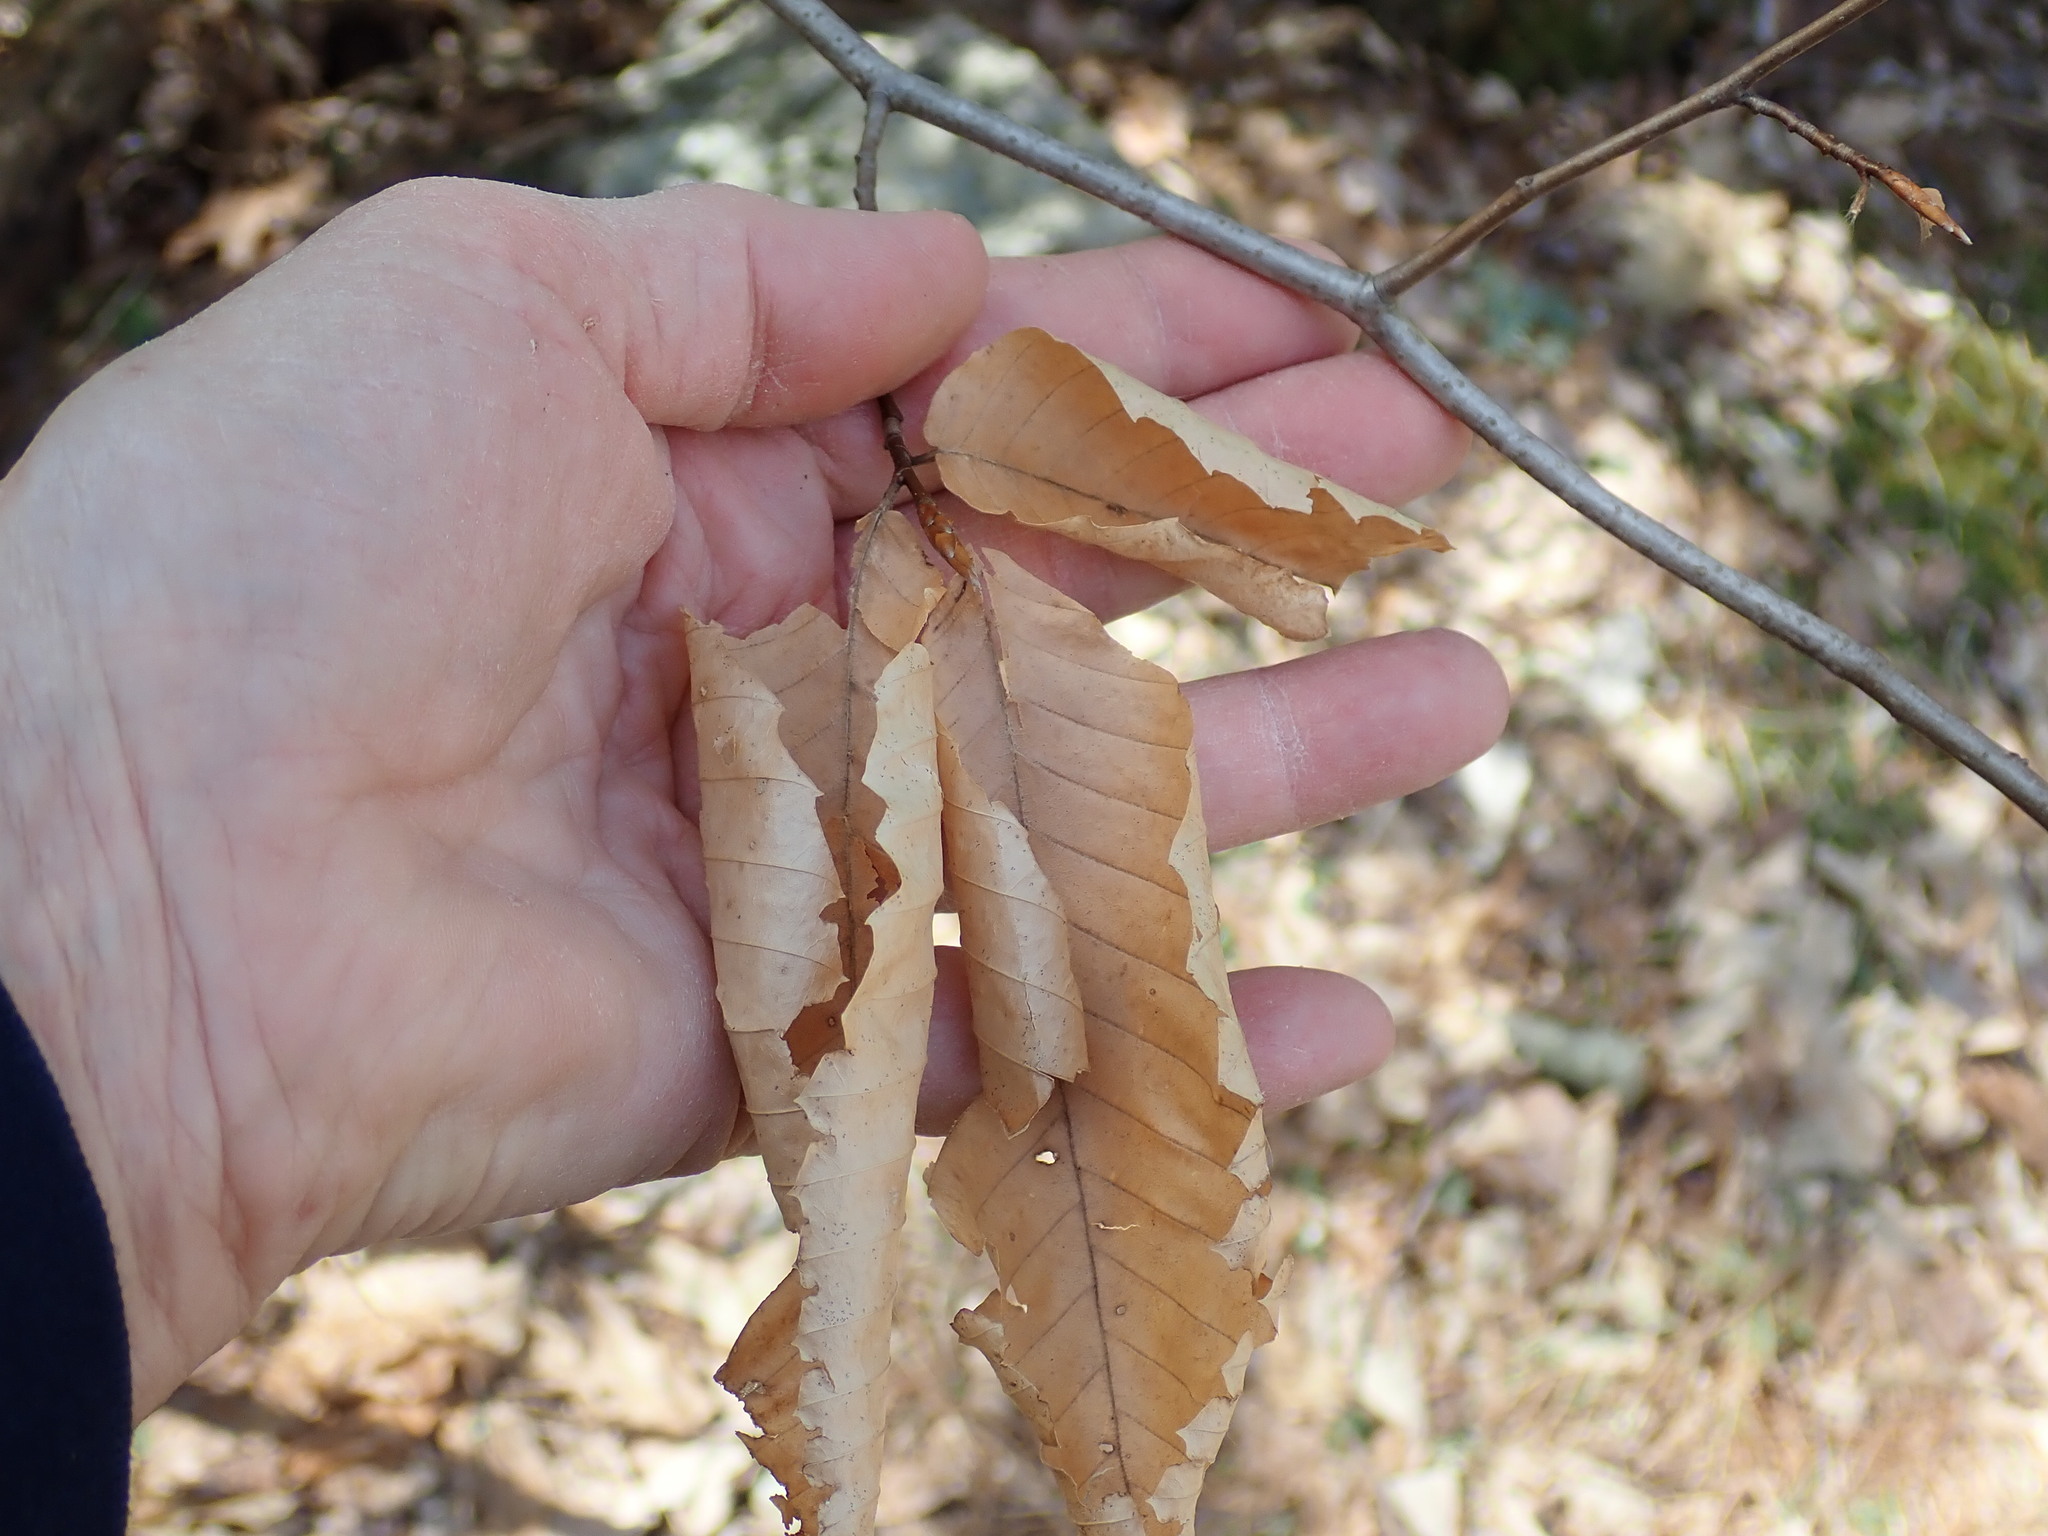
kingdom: Plantae
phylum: Tracheophyta
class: Magnoliopsida
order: Fagales
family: Fagaceae
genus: Fagus
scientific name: Fagus grandifolia
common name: American beech
